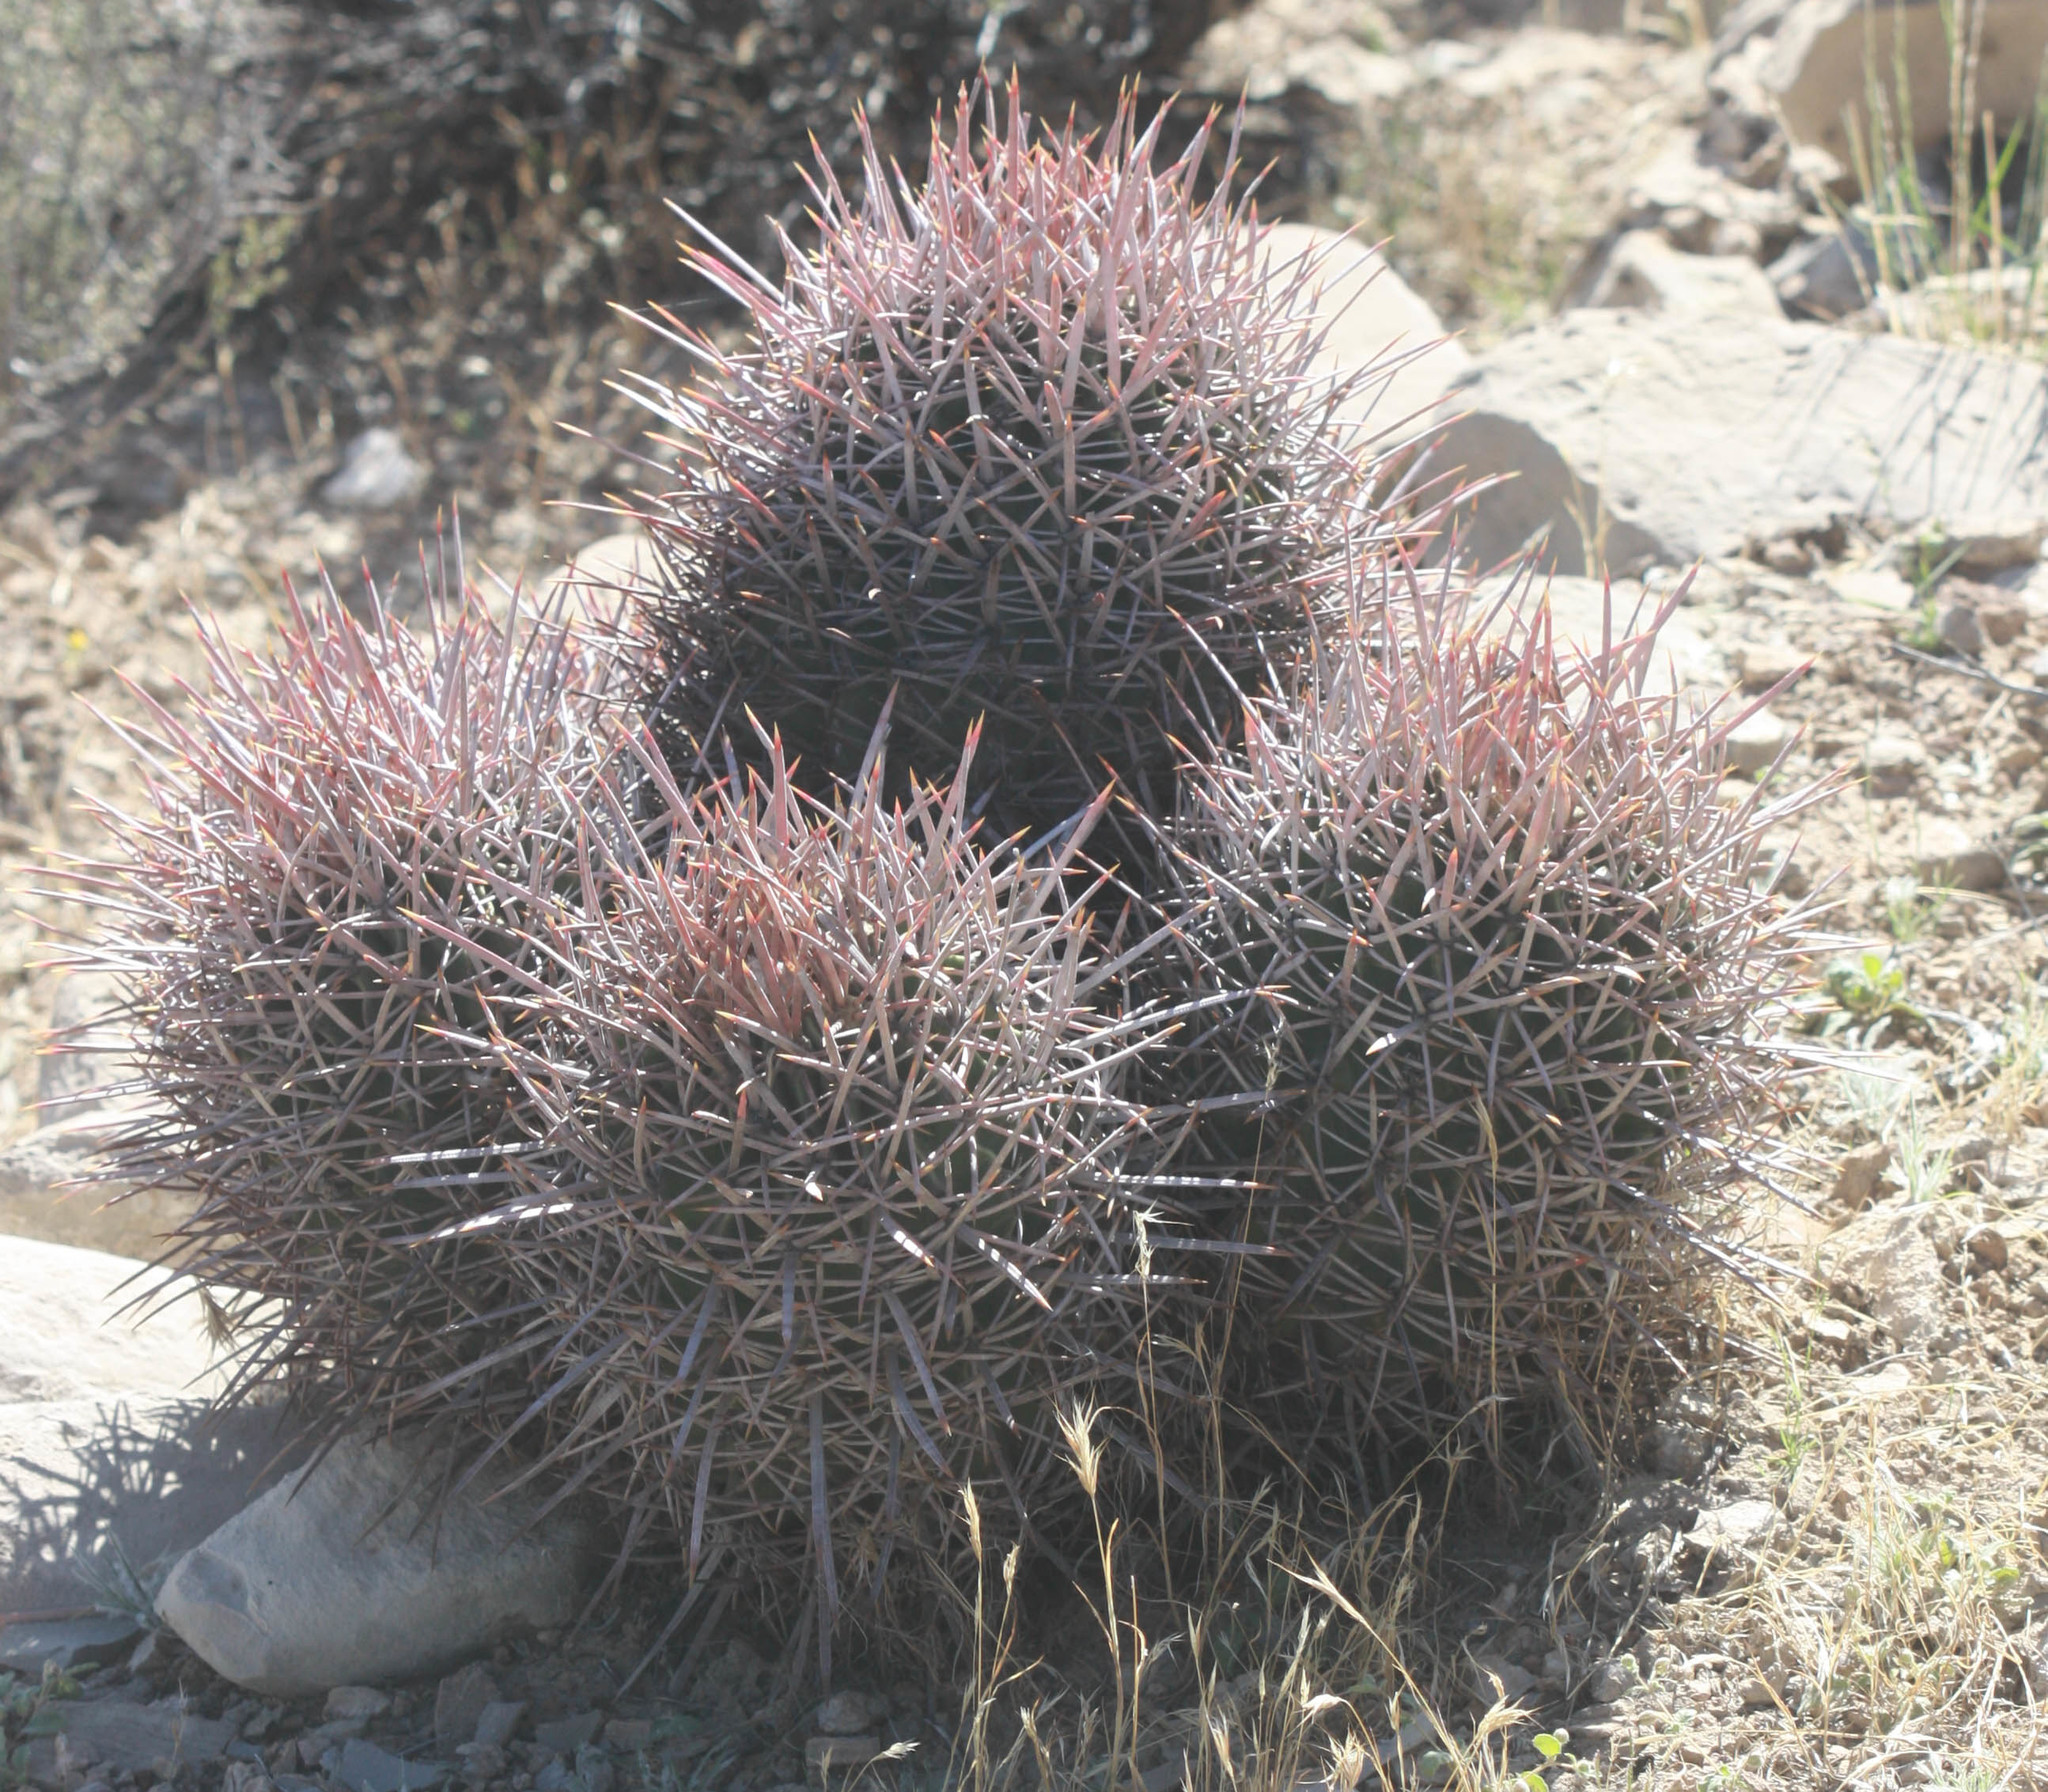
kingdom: Plantae
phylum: Tracheophyta
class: Magnoliopsida
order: Caryophyllales
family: Cactaceae
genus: Echinocactus
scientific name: Echinocactus polycephalus
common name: Cottontop cactus
